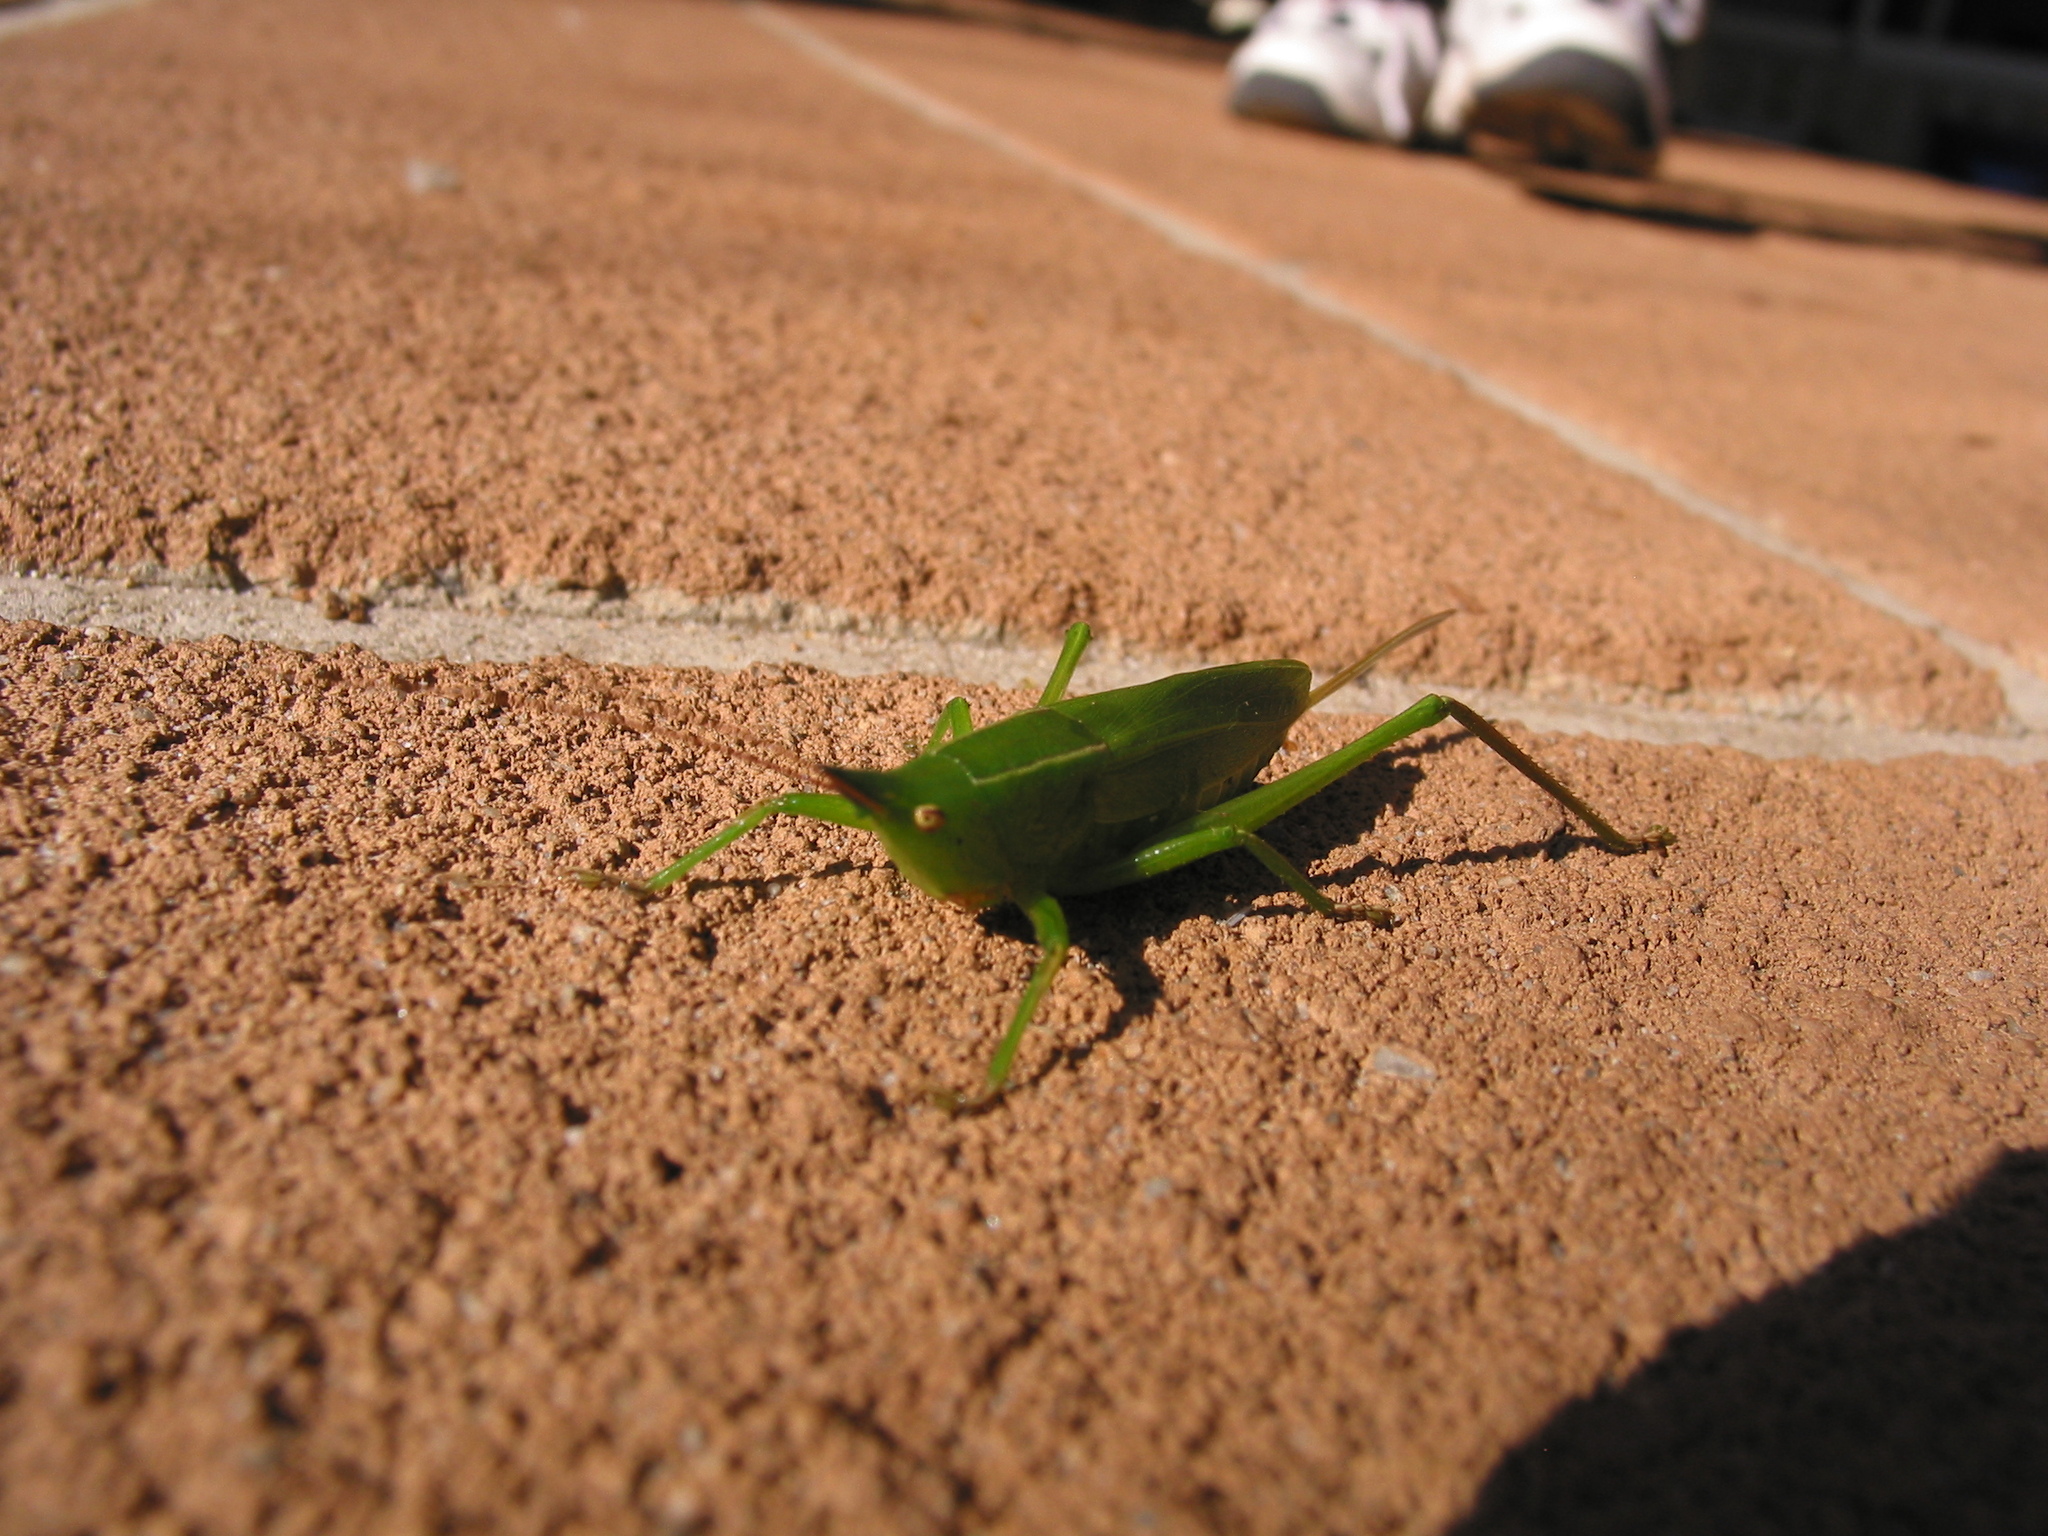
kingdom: Animalia
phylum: Arthropoda
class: Insecta
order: Orthoptera
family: Tettigoniidae
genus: Pseudorhynchus
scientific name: Pseudorhynchus mimeticus
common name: Mimicking snout-nosed katydid
